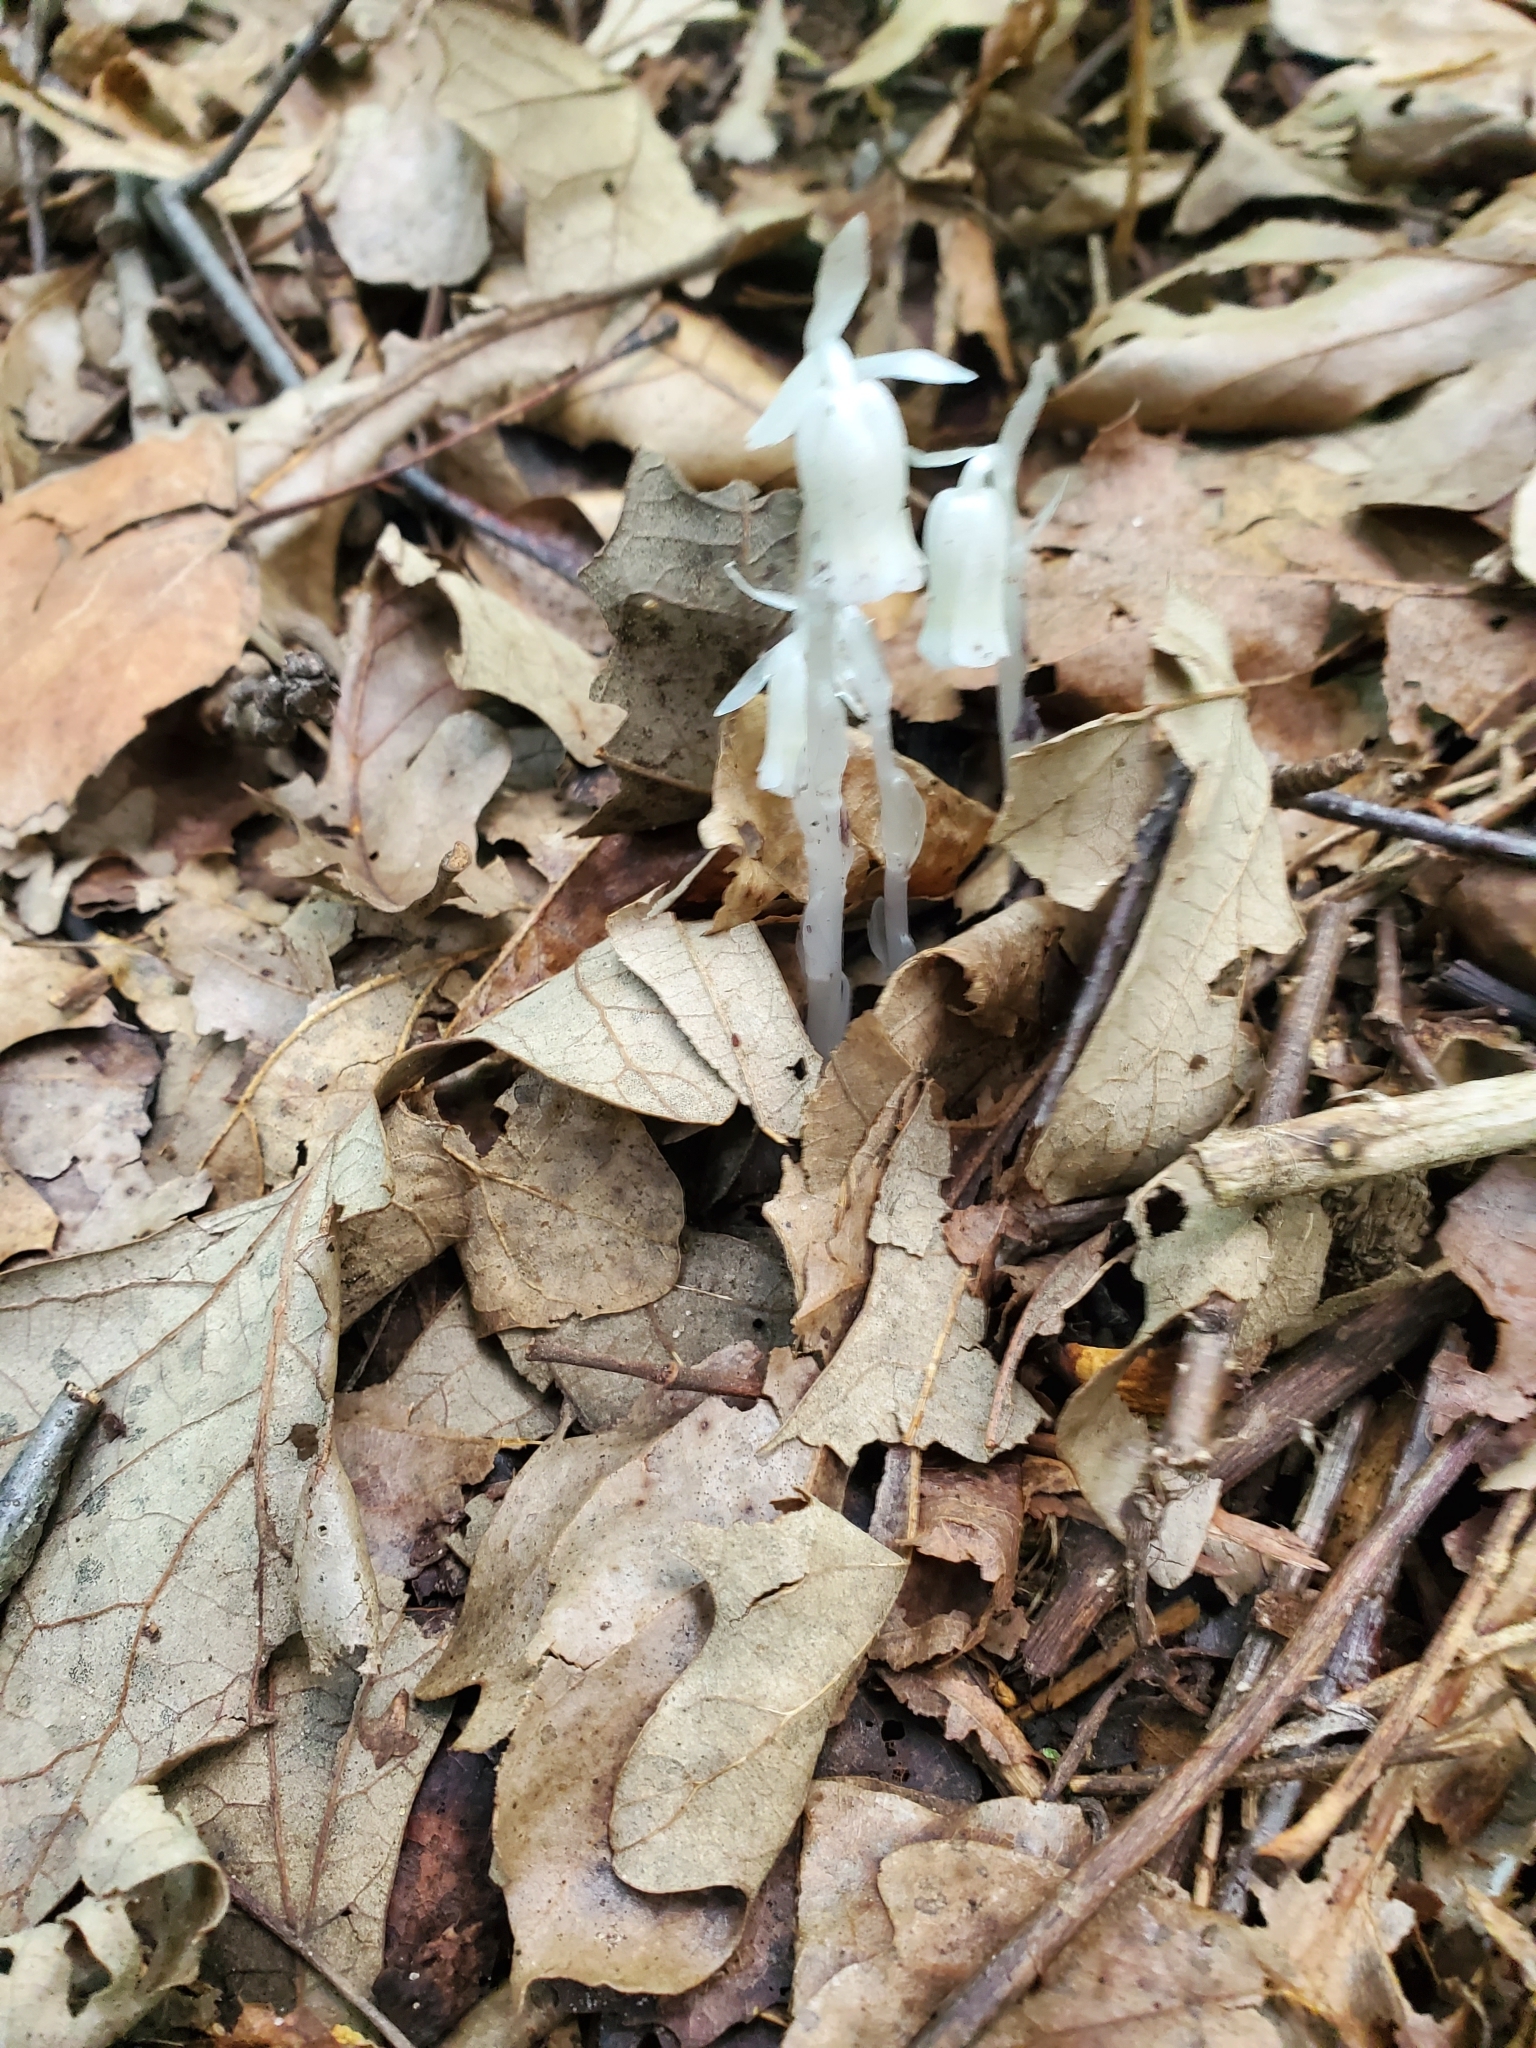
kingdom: Plantae
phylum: Tracheophyta
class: Magnoliopsida
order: Ericales
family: Ericaceae
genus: Monotropa
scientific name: Monotropa uniflora
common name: Convulsion root
